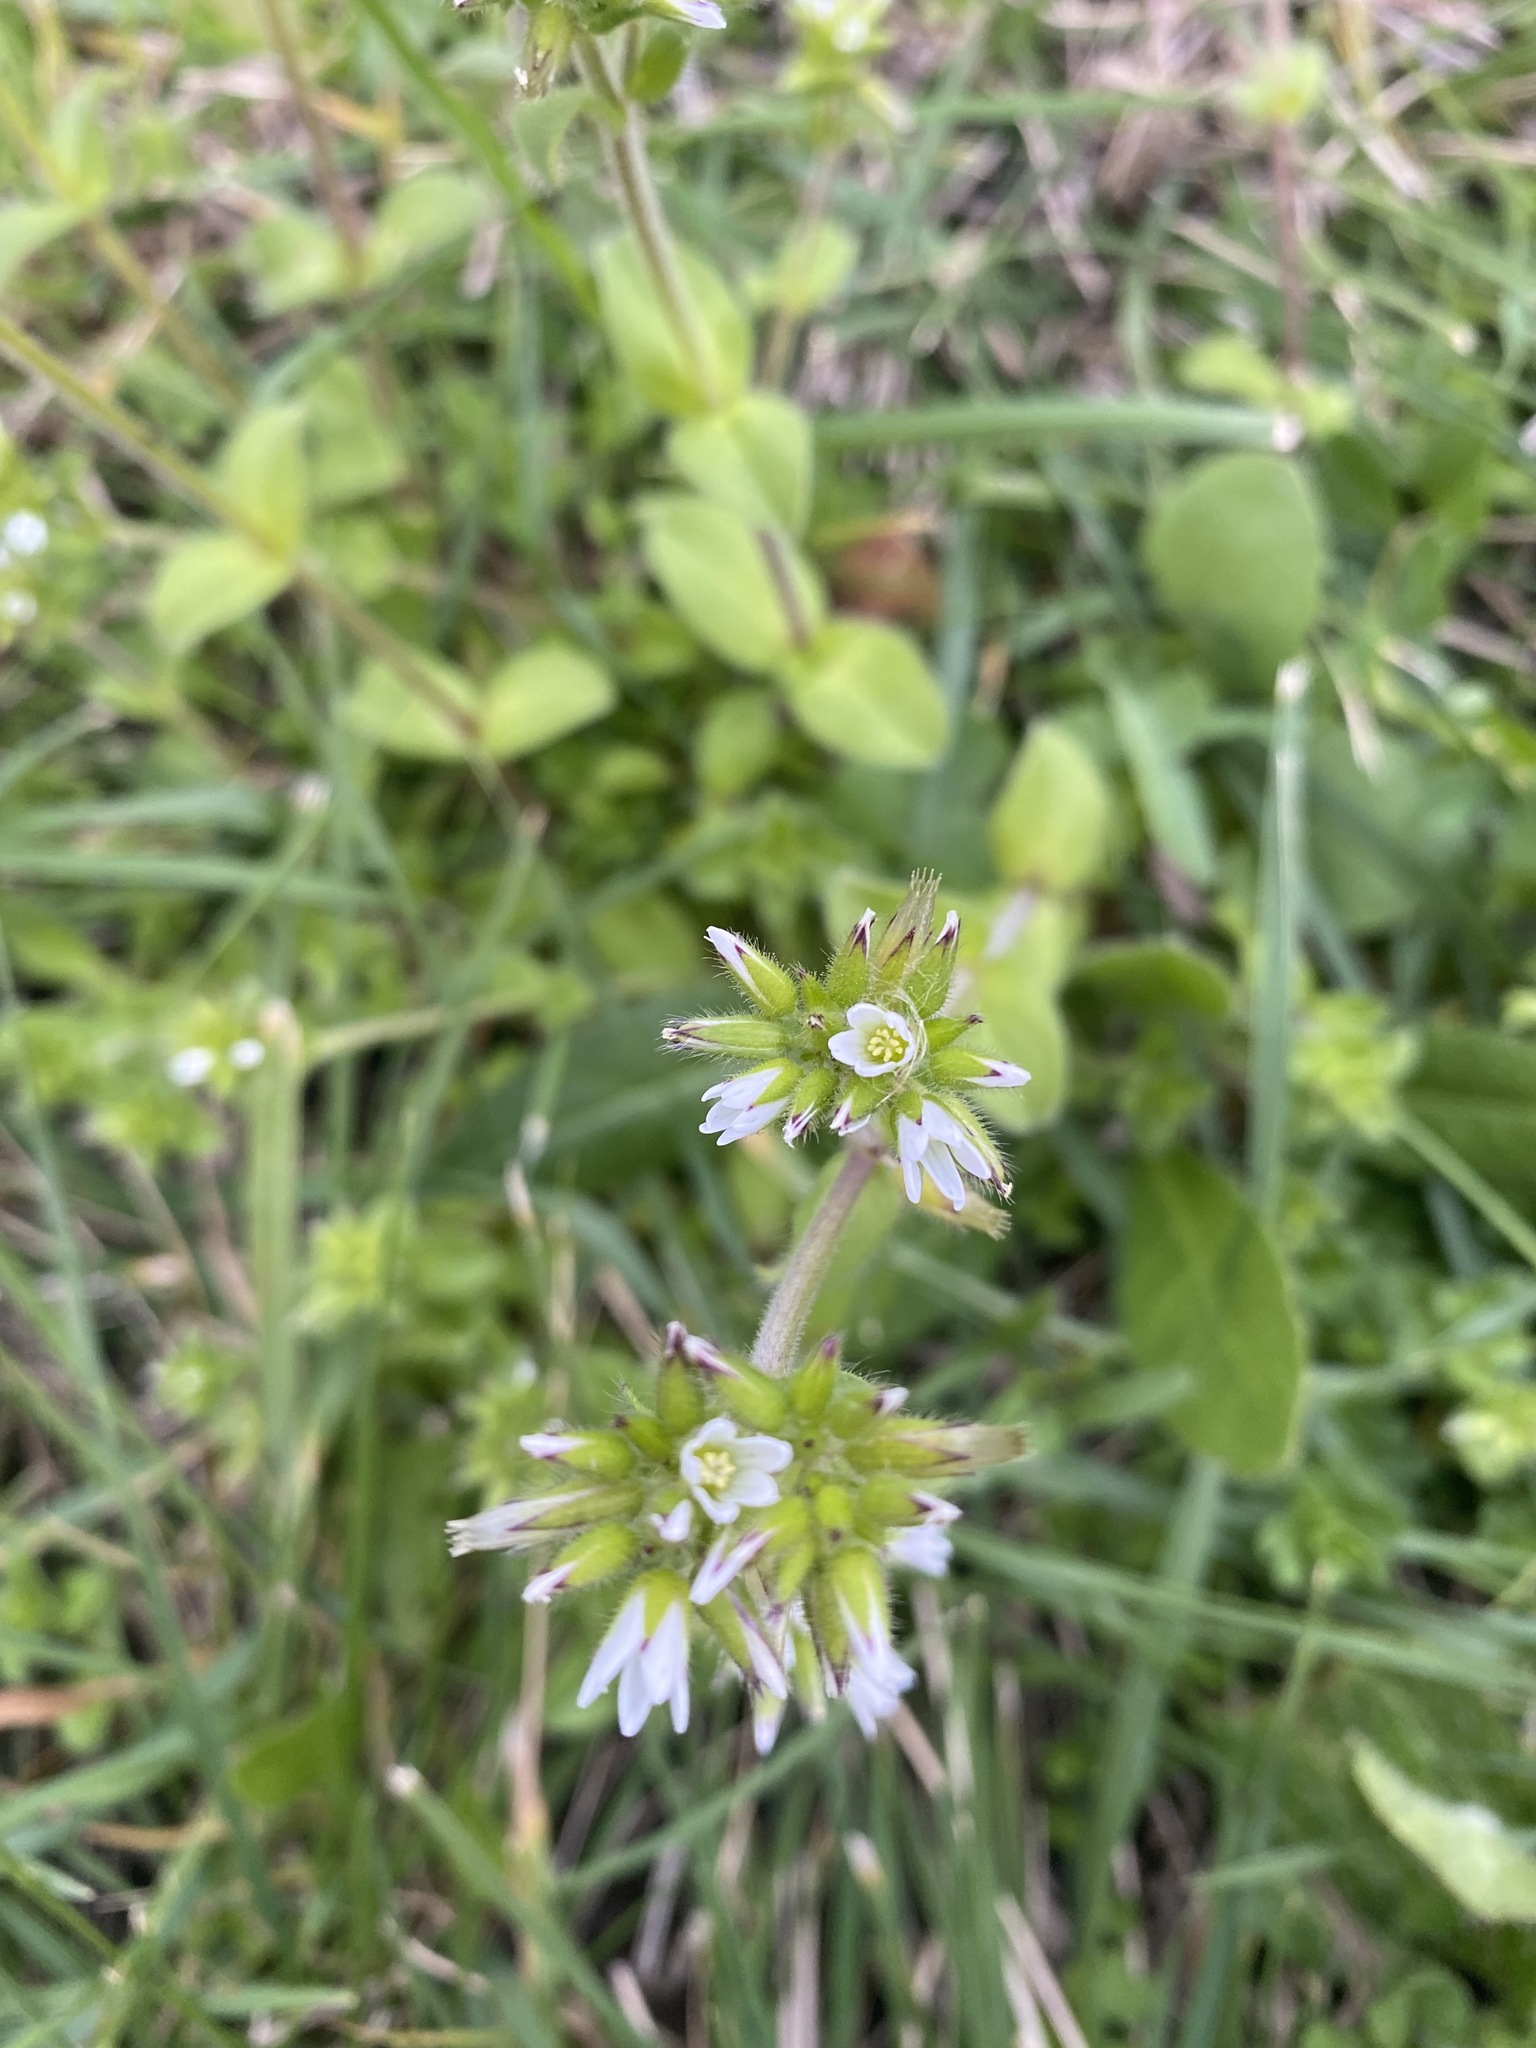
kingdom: Plantae
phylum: Tracheophyta
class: Magnoliopsida
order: Caryophyllales
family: Caryophyllaceae
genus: Cerastium
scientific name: Cerastium glomeratum
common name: Sticky chickweed
